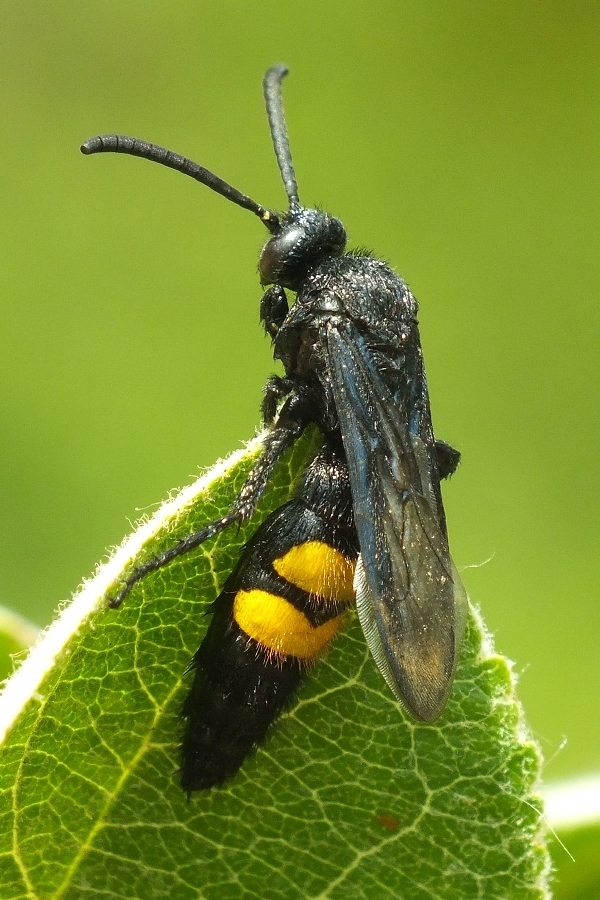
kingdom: Animalia
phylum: Arthropoda
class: Insecta
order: Hymenoptera
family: Scoliidae
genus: Scolia
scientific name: Scolia hirta
